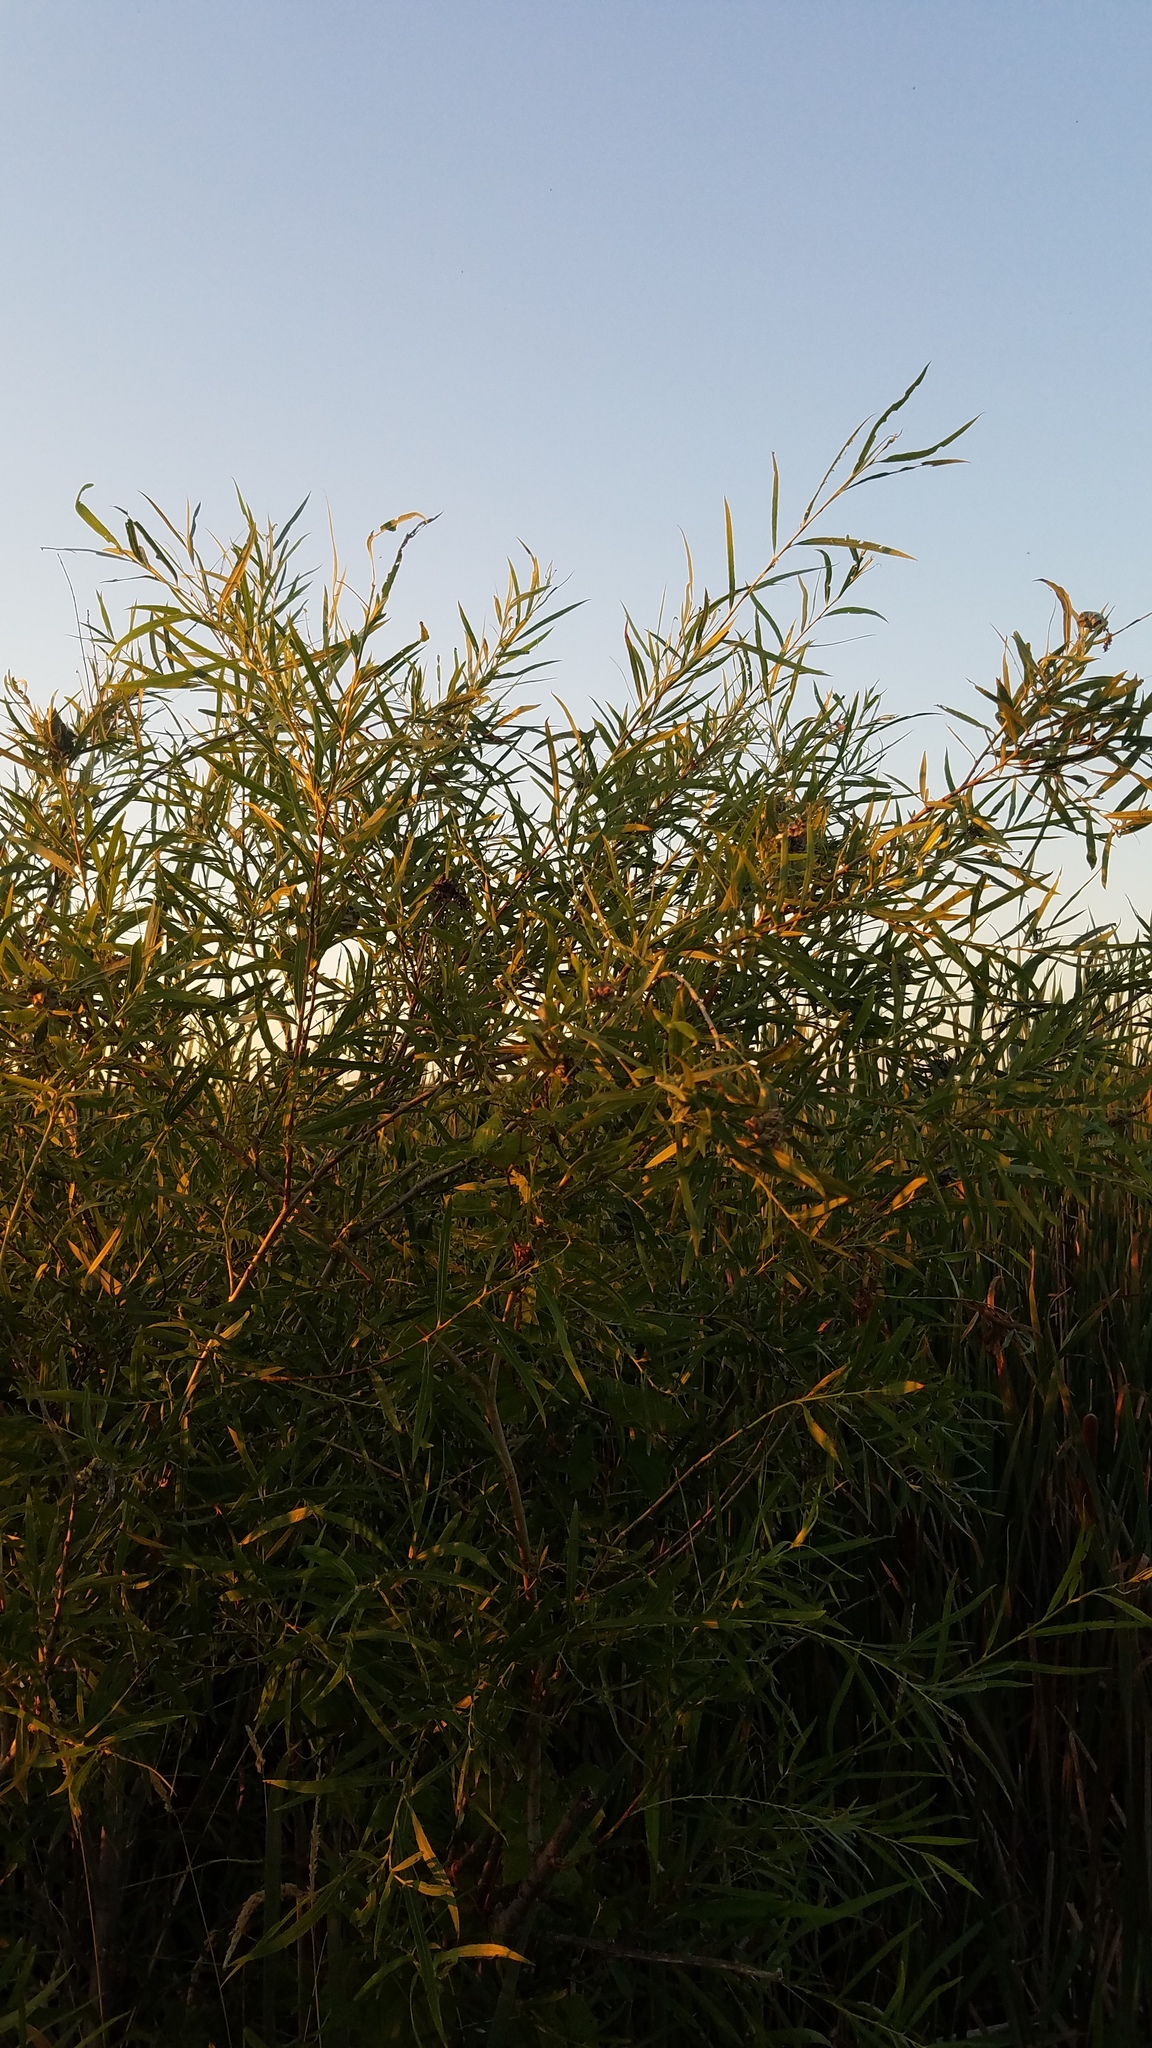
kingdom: Plantae
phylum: Tracheophyta
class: Magnoliopsida
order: Malpighiales
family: Salicaceae
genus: Salix
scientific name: Salix interior
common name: Sandbar willow
